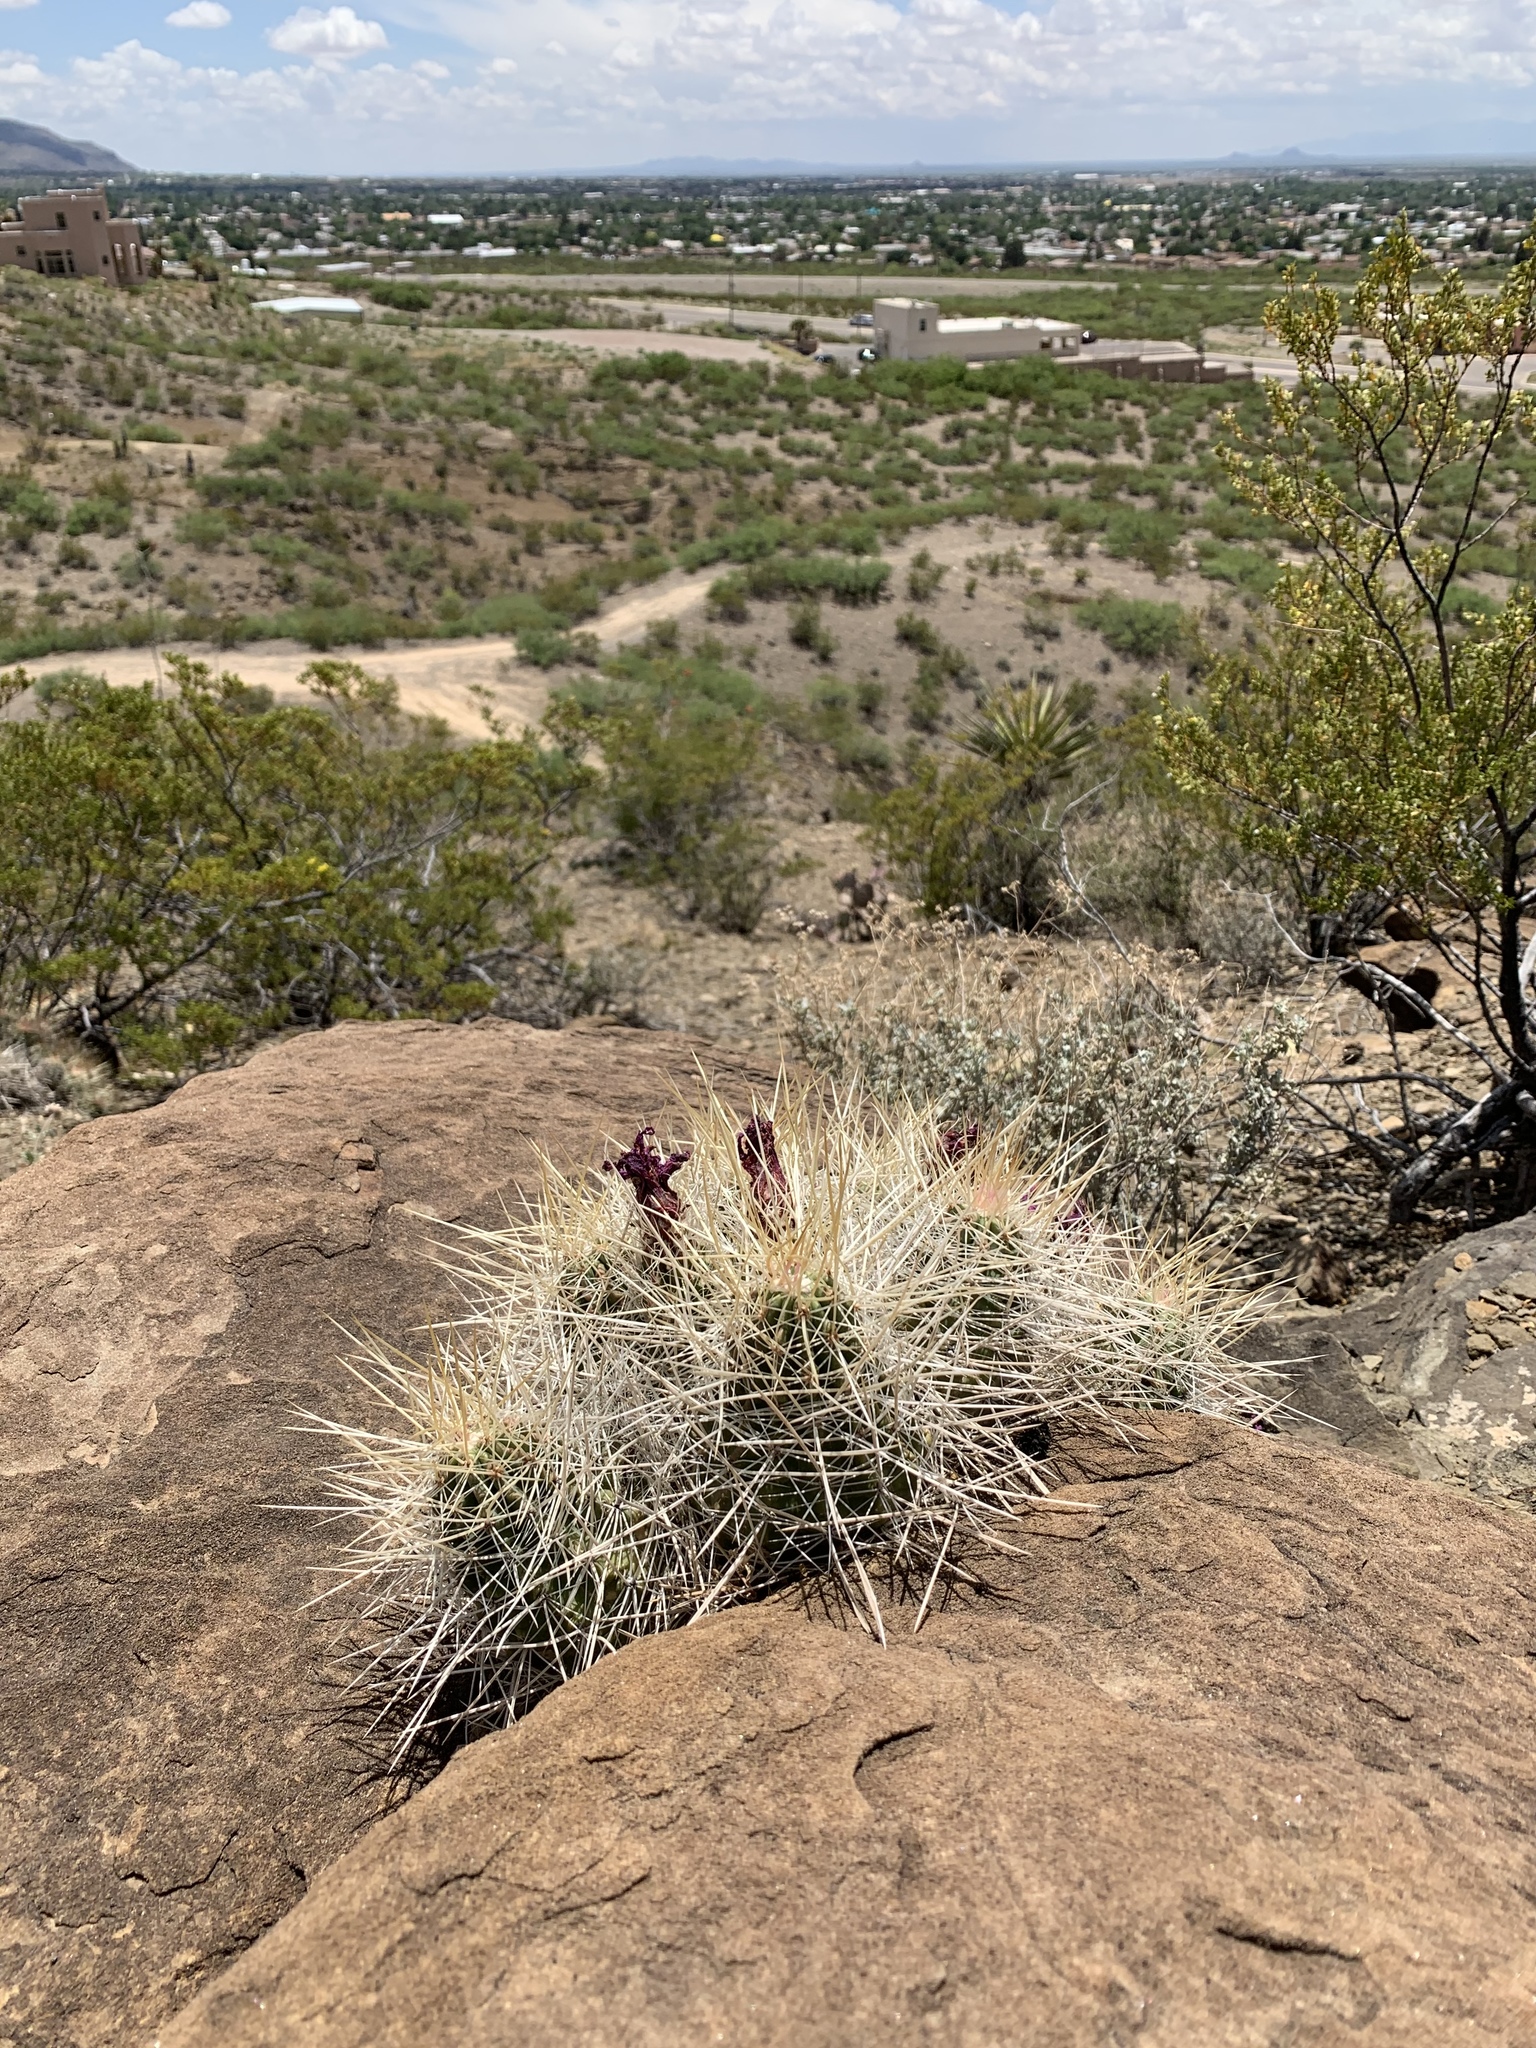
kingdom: Plantae
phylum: Tracheophyta
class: Magnoliopsida
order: Caryophyllales
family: Cactaceae
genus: Echinocereus
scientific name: Echinocereus stramineus
